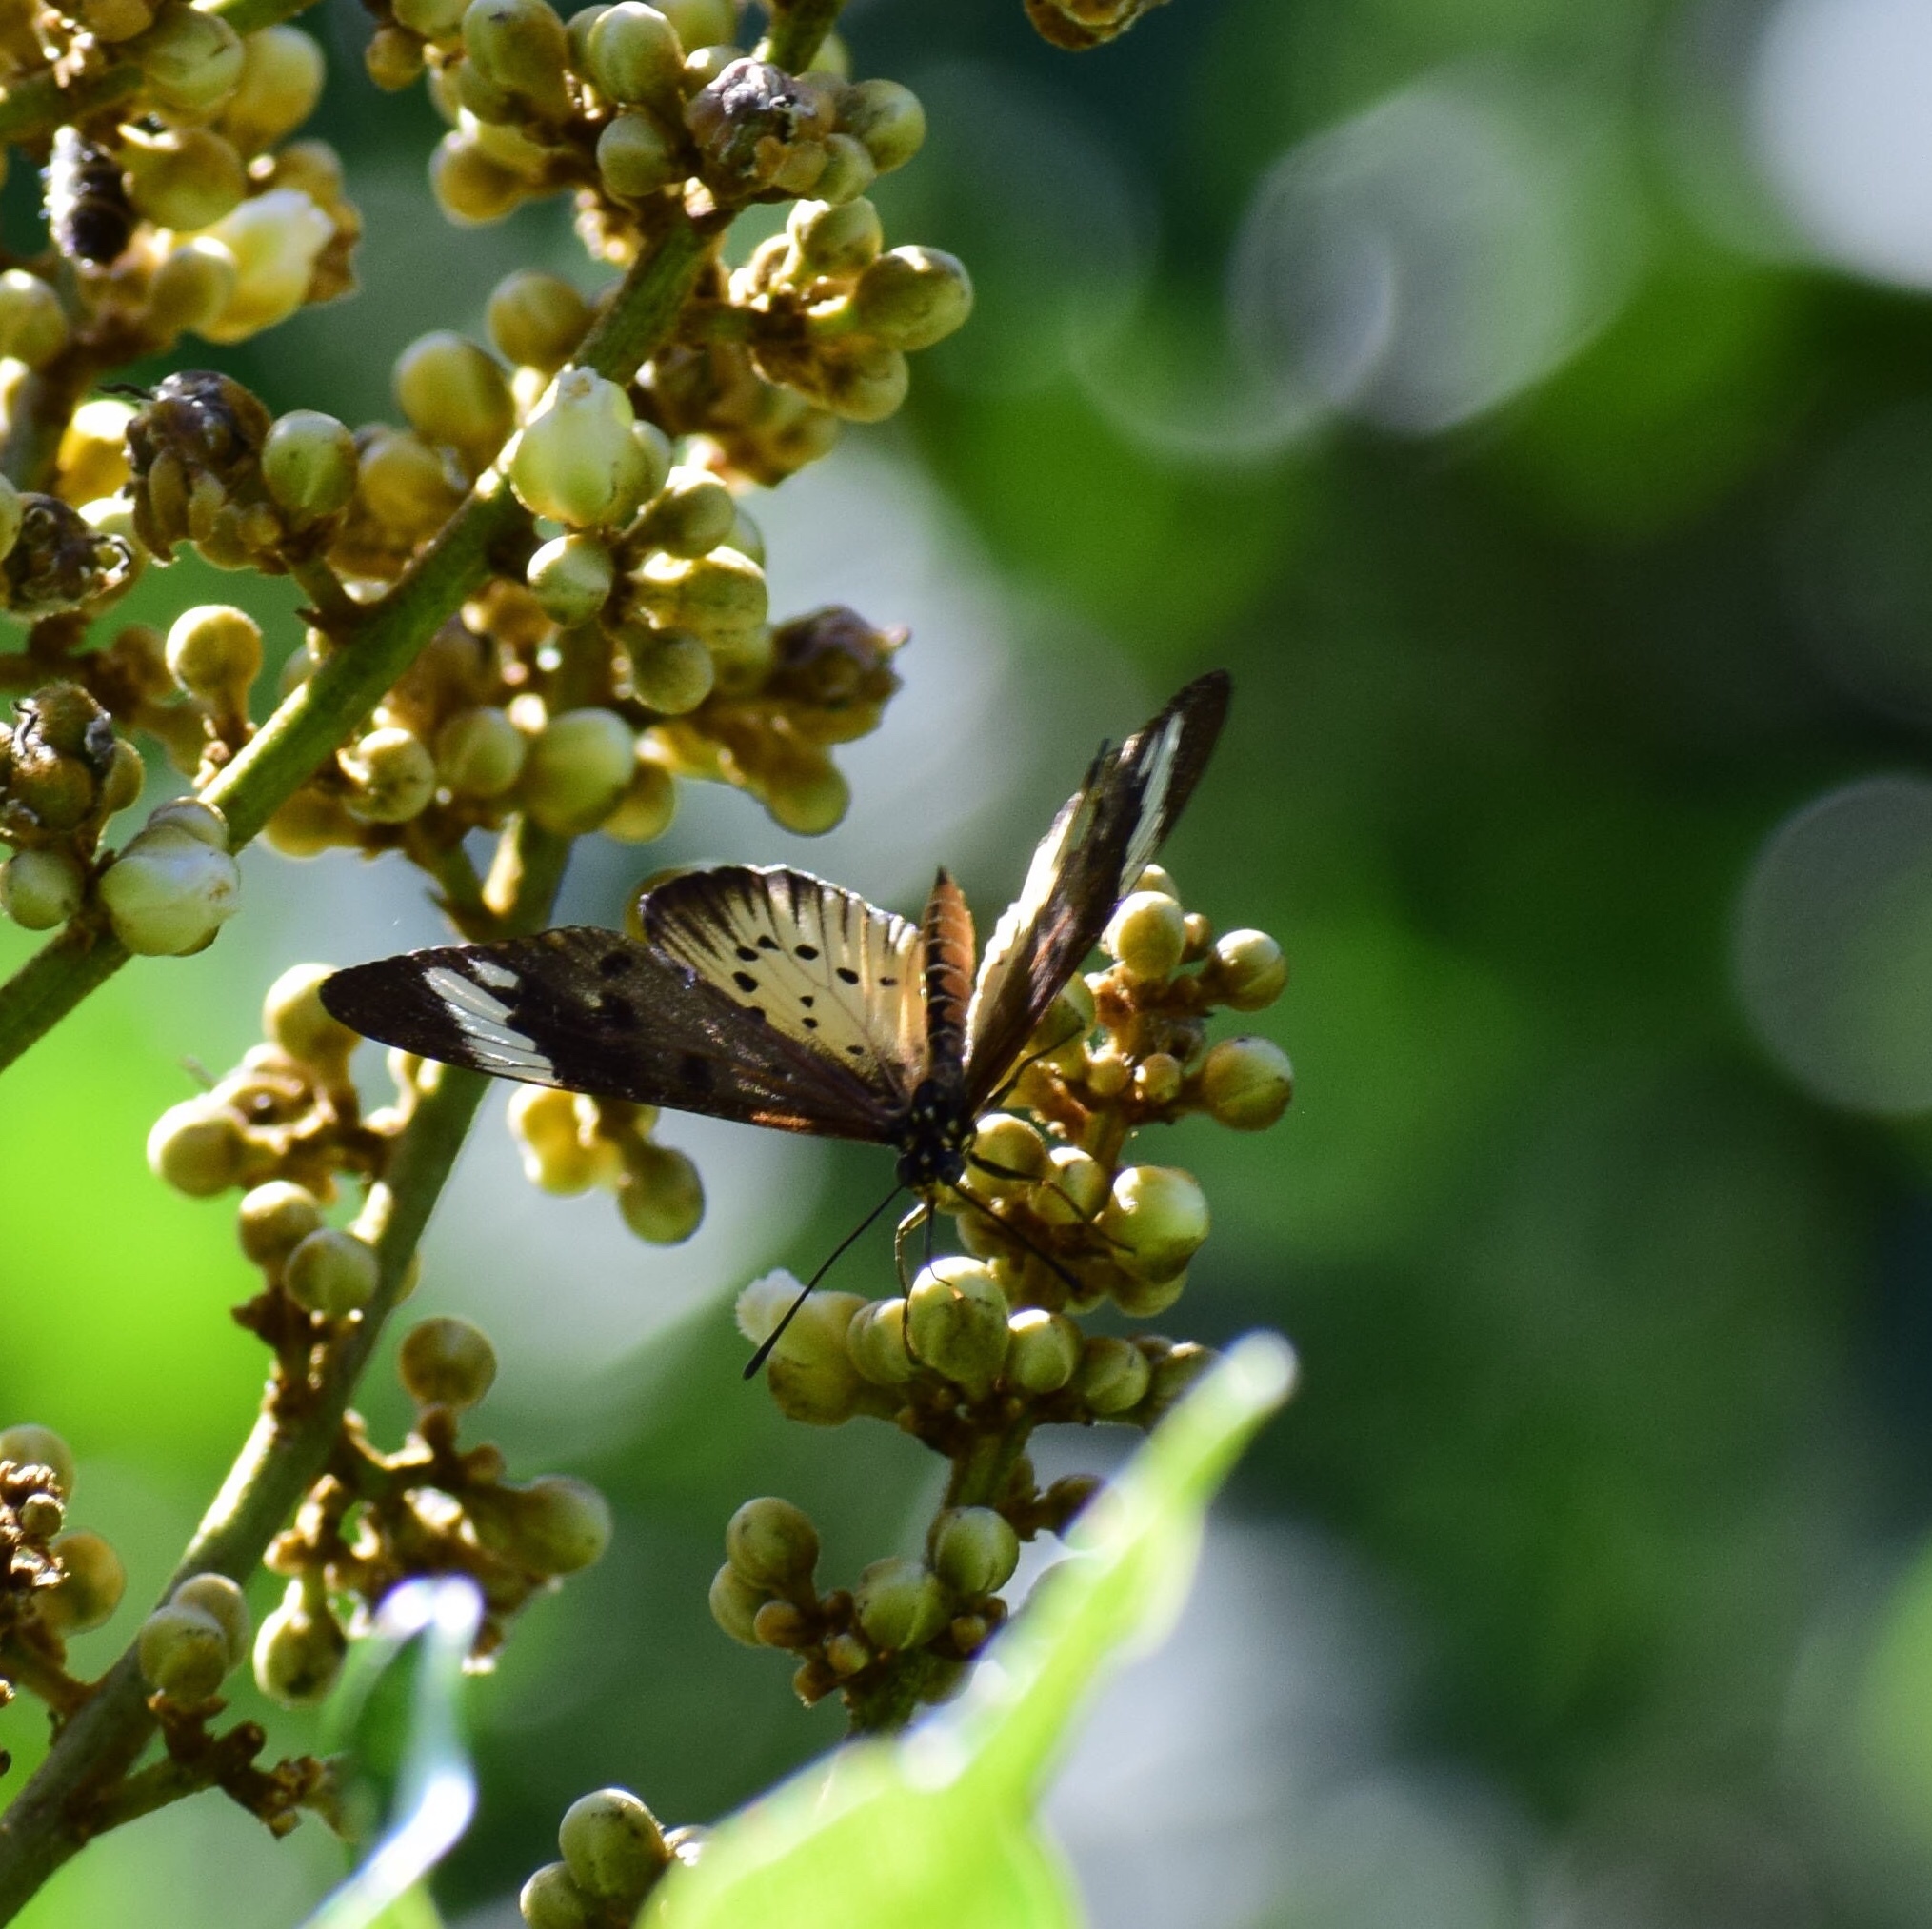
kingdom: Animalia
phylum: Arthropoda
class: Insecta
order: Lepidoptera
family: Nymphalidae
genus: Acraea
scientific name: Acraea Telchinia encedon
